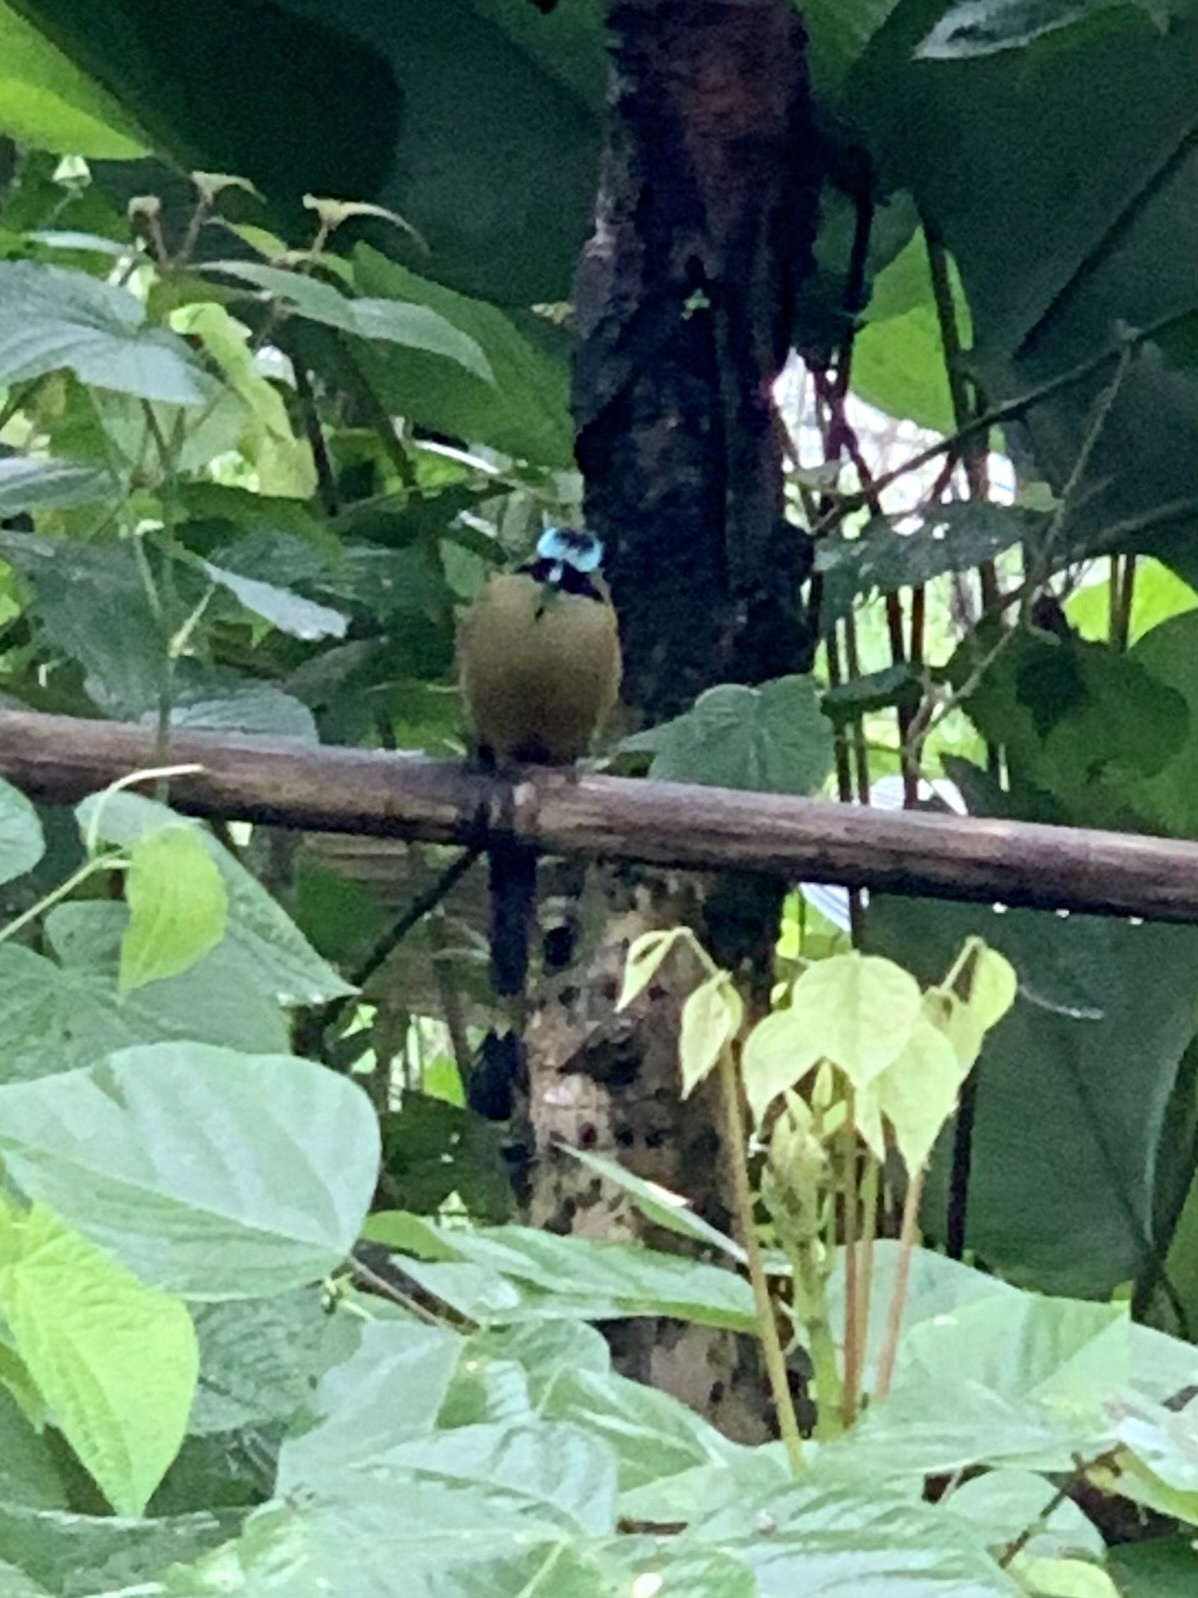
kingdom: Animalia
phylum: Chordata
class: Aves
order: Coraciiformes
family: Momotidae
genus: Momotus
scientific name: Momotus subrufescens
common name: Whooping motmot
